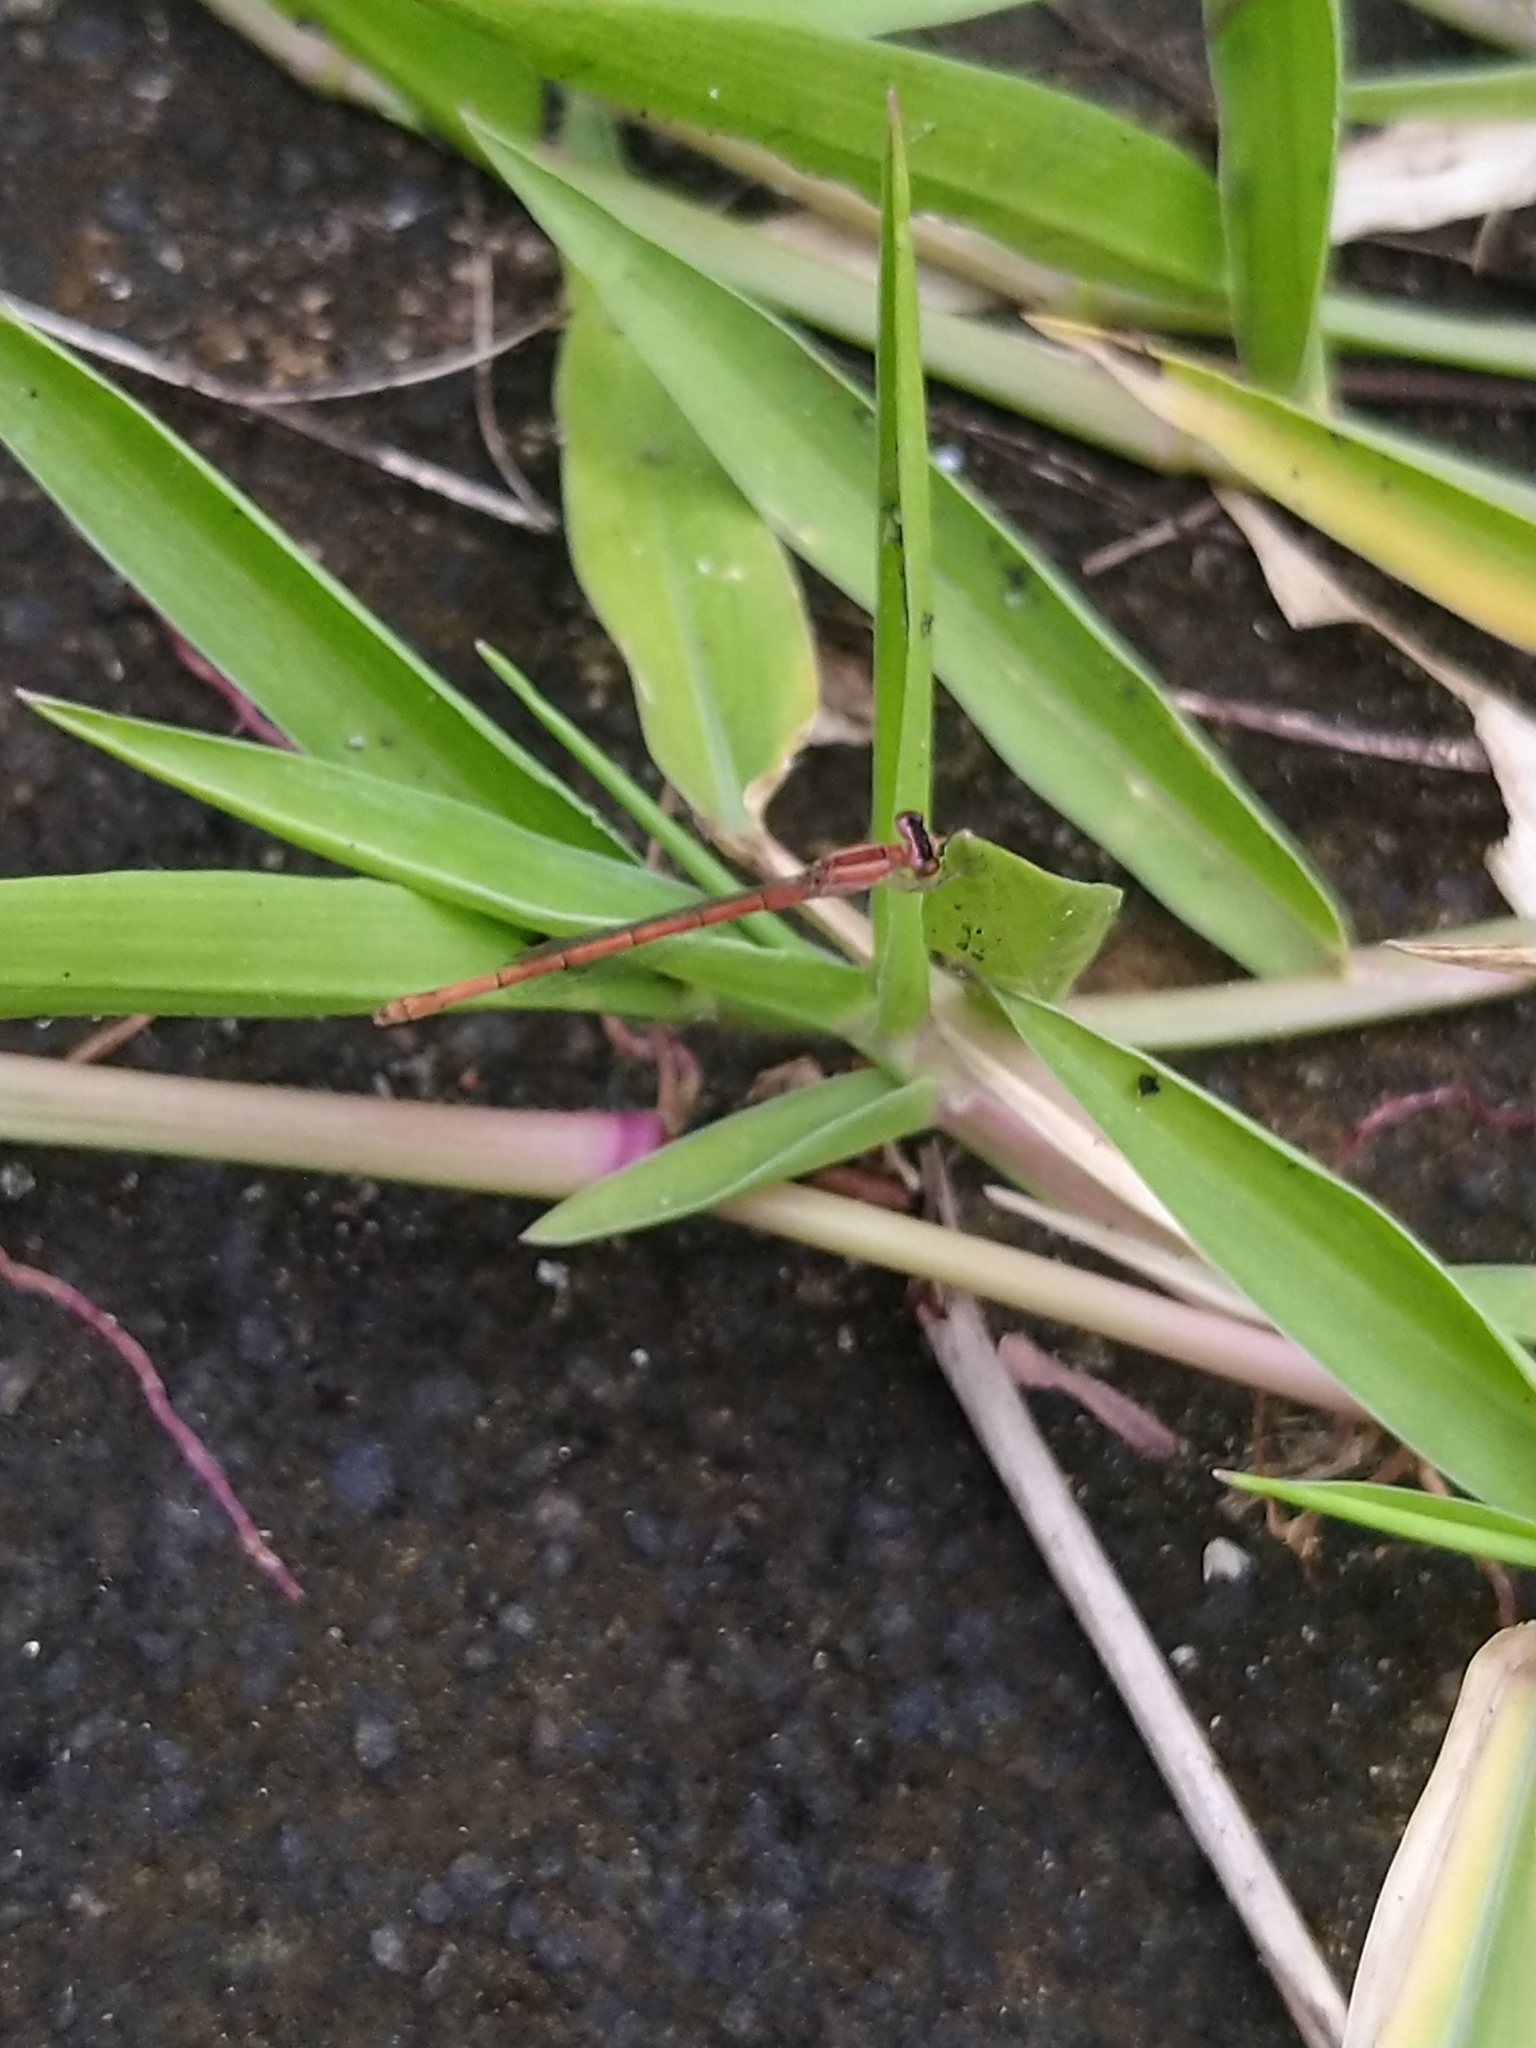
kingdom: Animalia
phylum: Arthropoda
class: Insecta
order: Odonata
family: Coenagrionidae
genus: Agriocnemis
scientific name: Agriocnemis pygmaea
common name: Pygmy wisp
